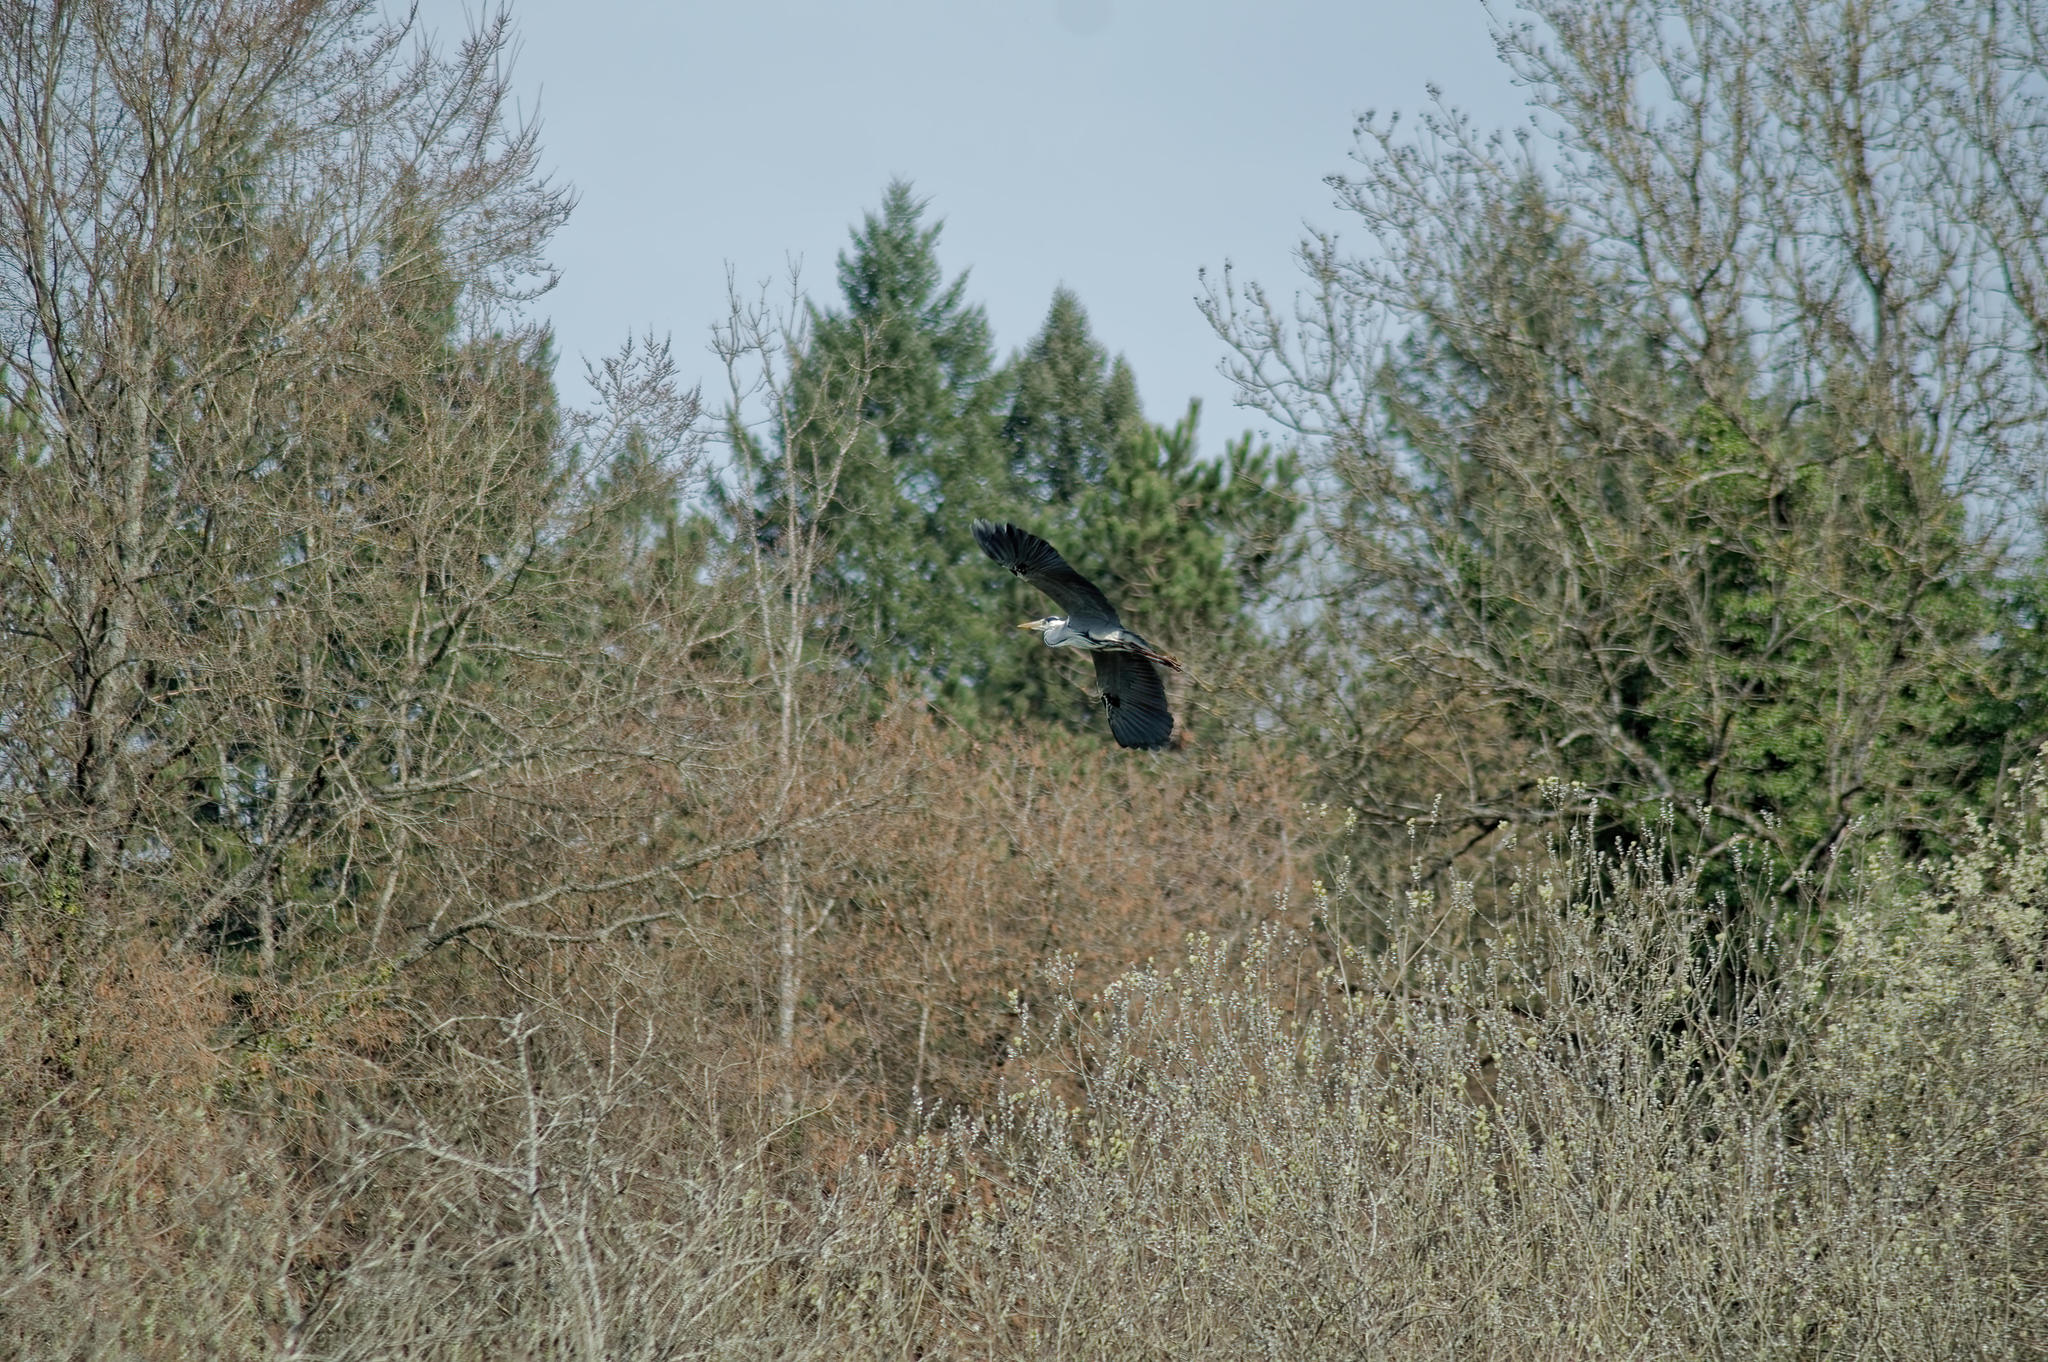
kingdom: Animalia
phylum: Chordata
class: Aves
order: Pelecaniformes
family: Ardeidae
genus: Ardea
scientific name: Ardea cinerea
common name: Grey heron
